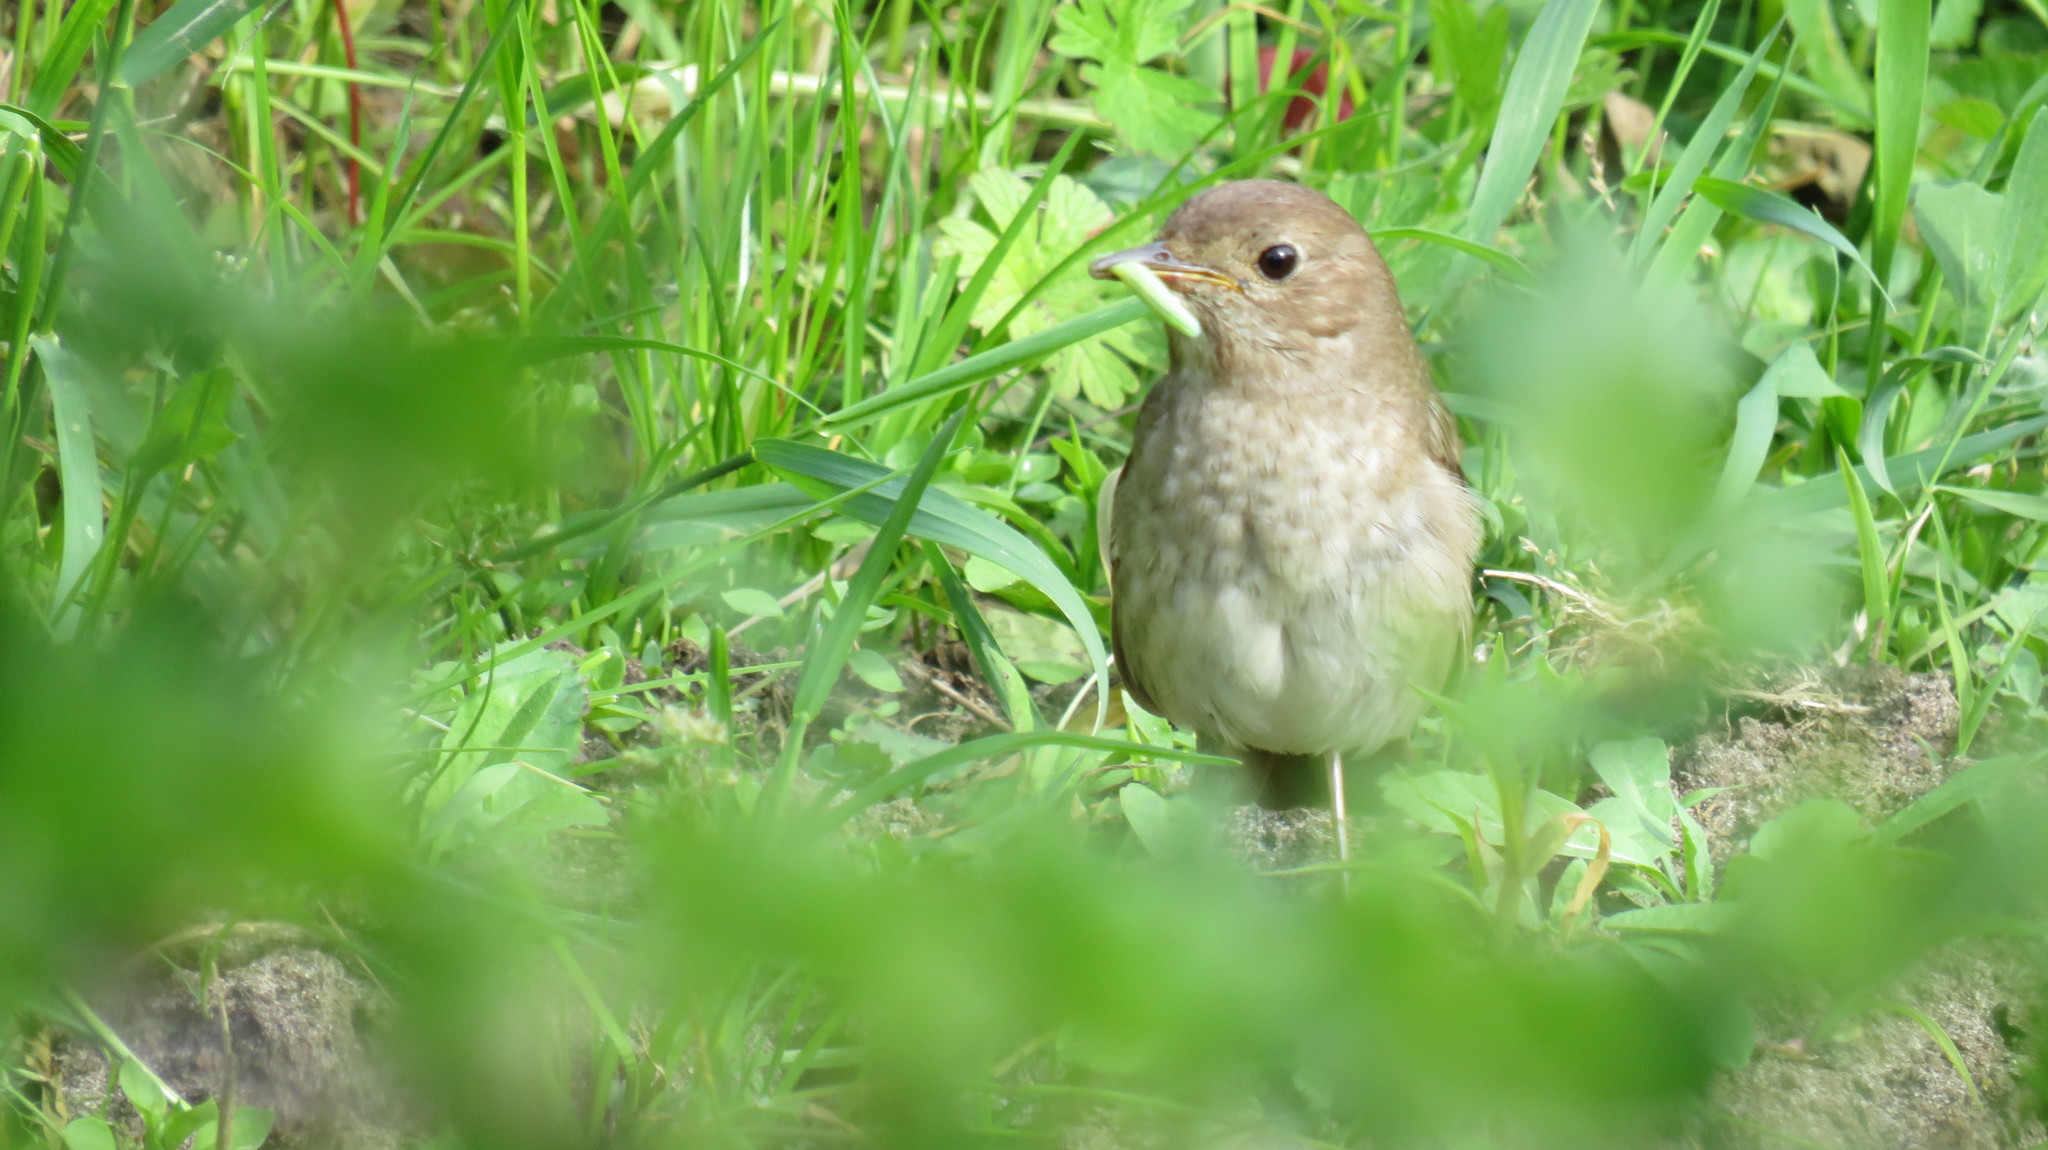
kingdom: Animalia
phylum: Chordata
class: Aves
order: Passeriformes
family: Muscicapidae
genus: Luscinia
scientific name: Luscinia luscinia
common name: Thrush nightingale
